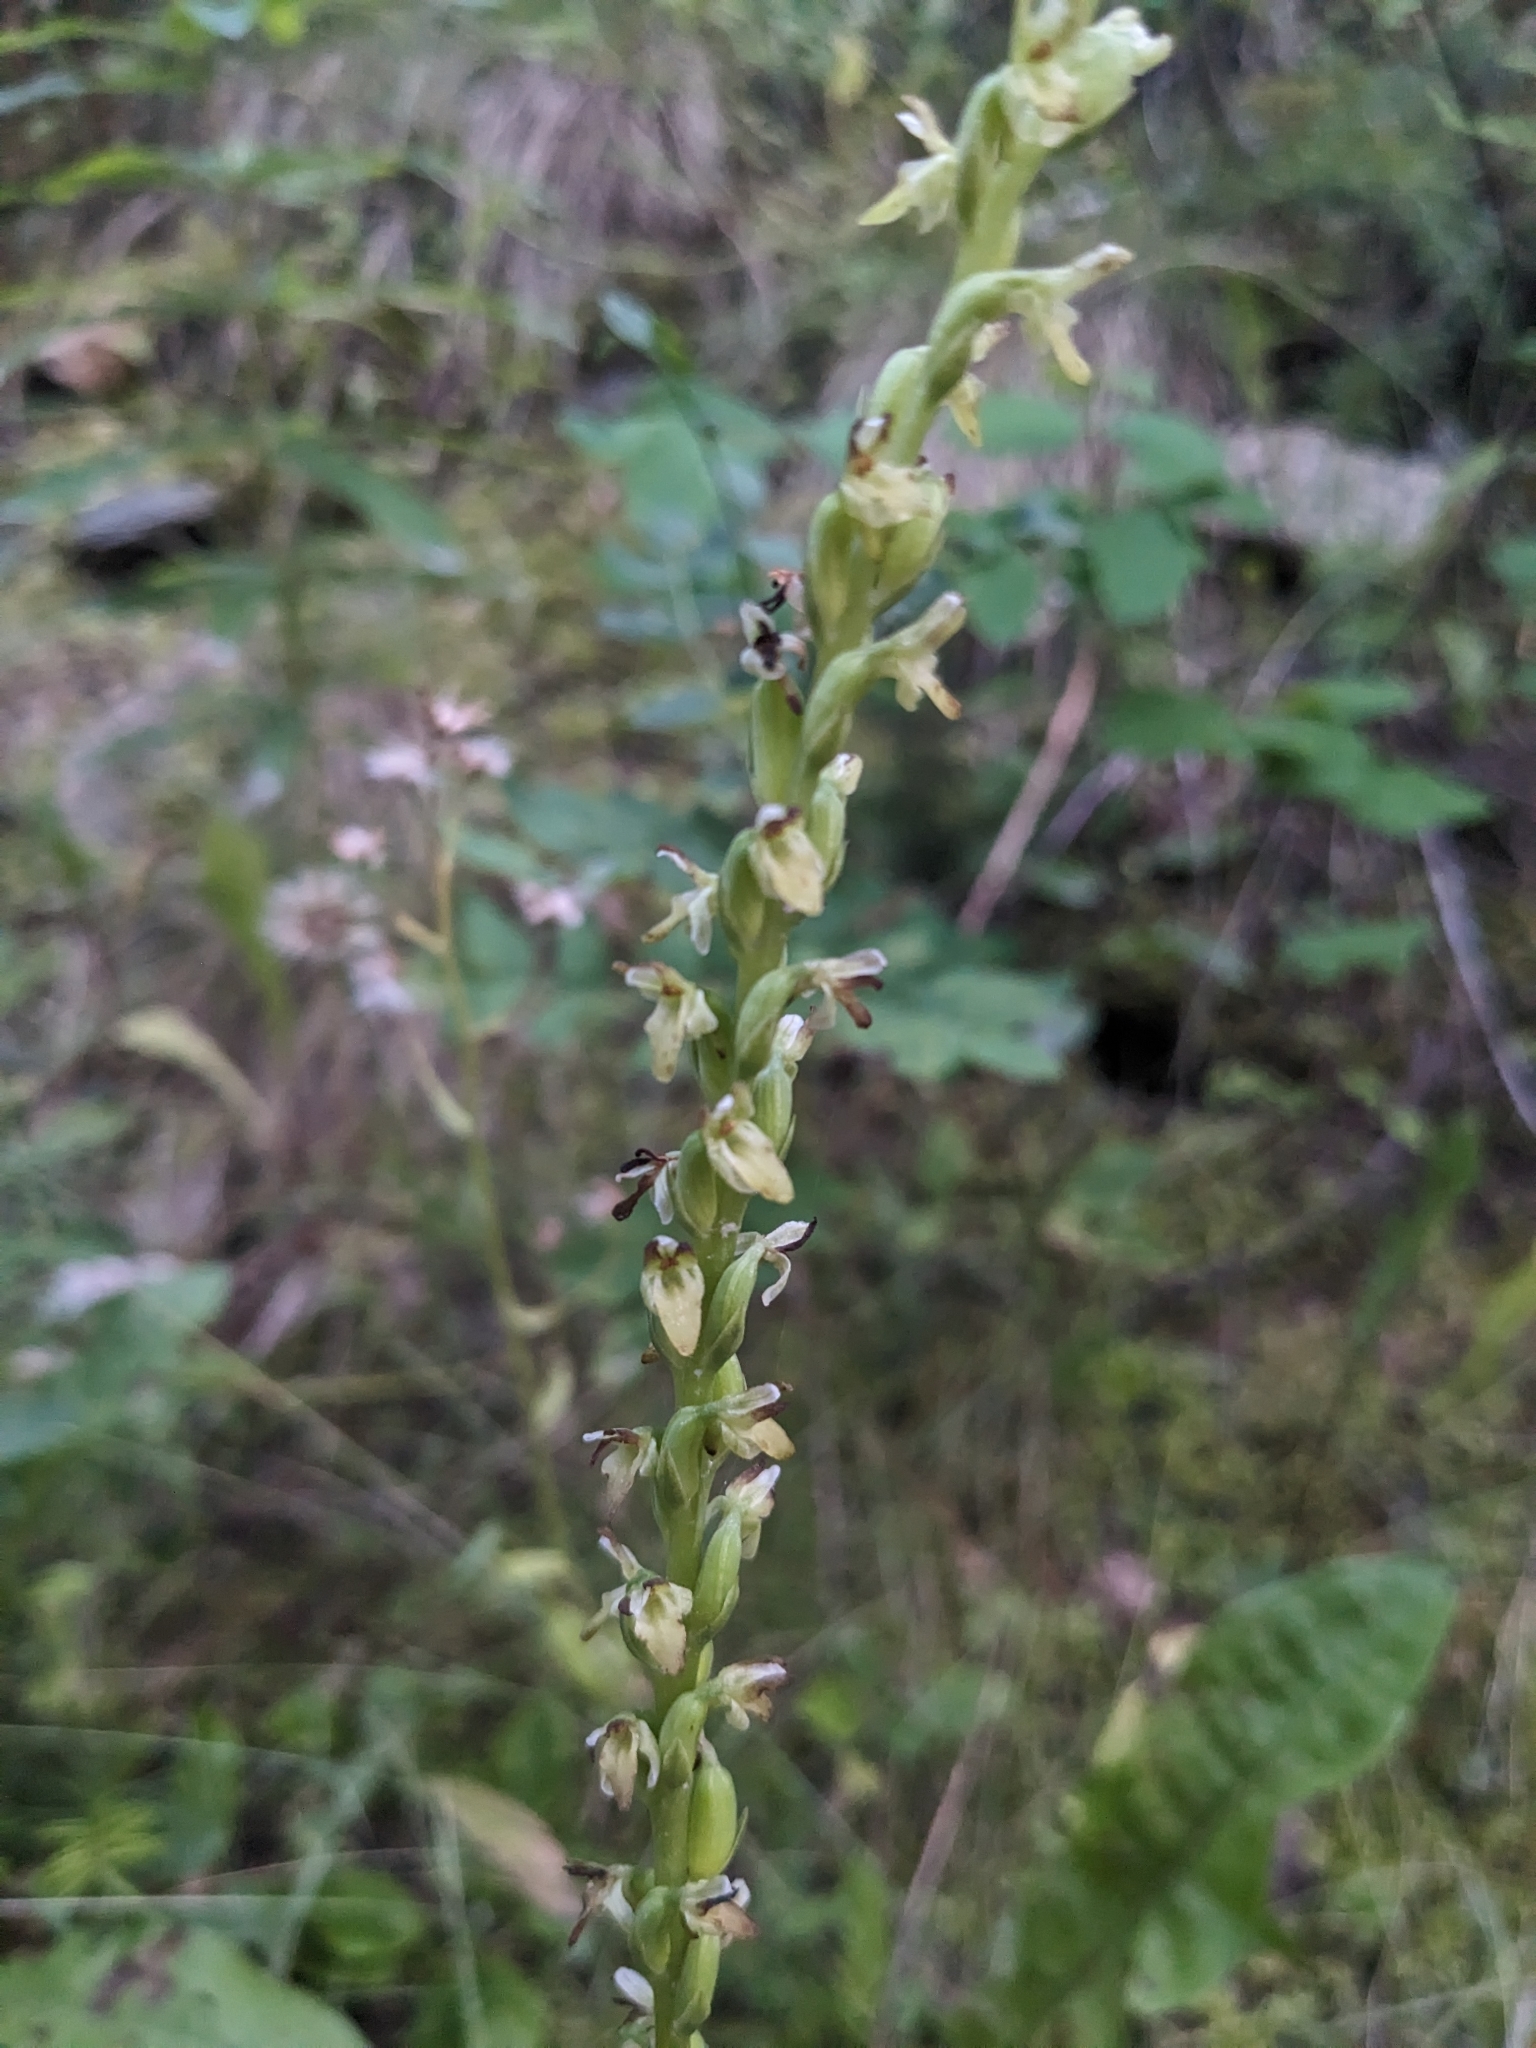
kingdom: Plantae
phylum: Tracheophyta
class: Liliopsida
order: Asparagales
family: Orchidaceae
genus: Platanthera
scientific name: Platanthera unalascensis
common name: Alaska bog orchid
